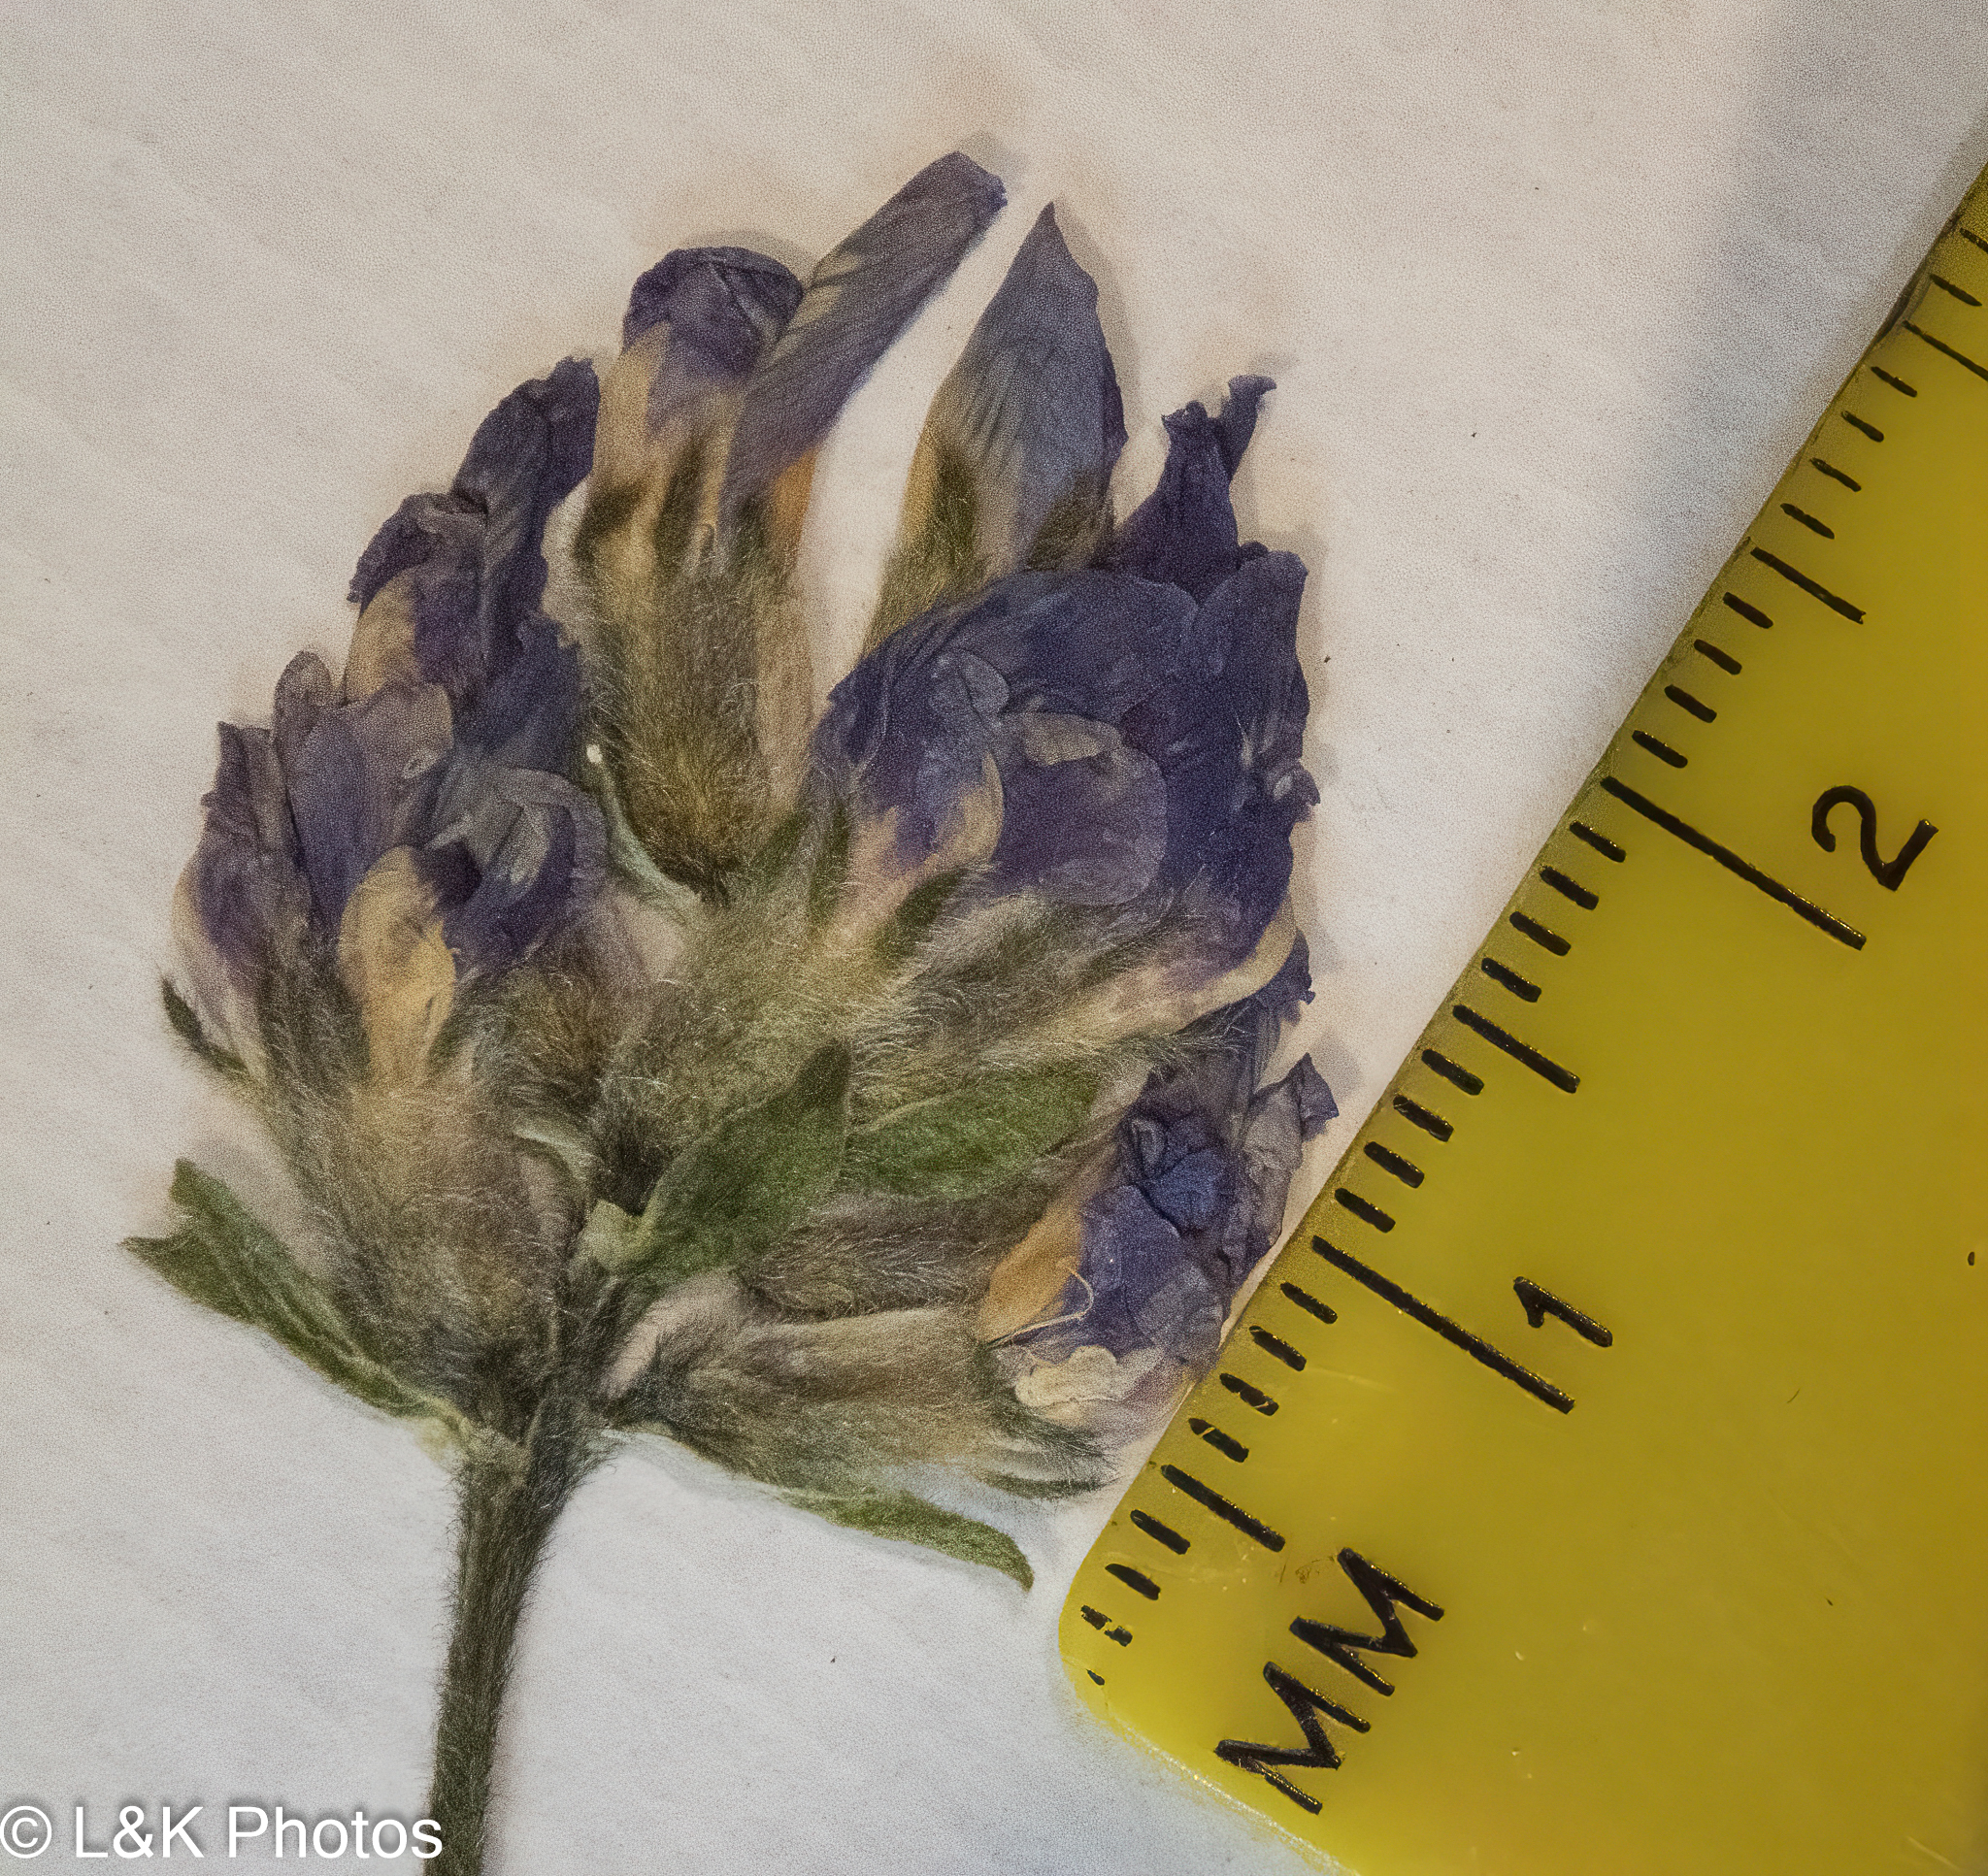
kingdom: Plantae
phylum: Tracheophyta
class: Magnoliopsida
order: Fabales
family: Fabaceae
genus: Oxytropis
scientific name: Oxytropis jordalii
